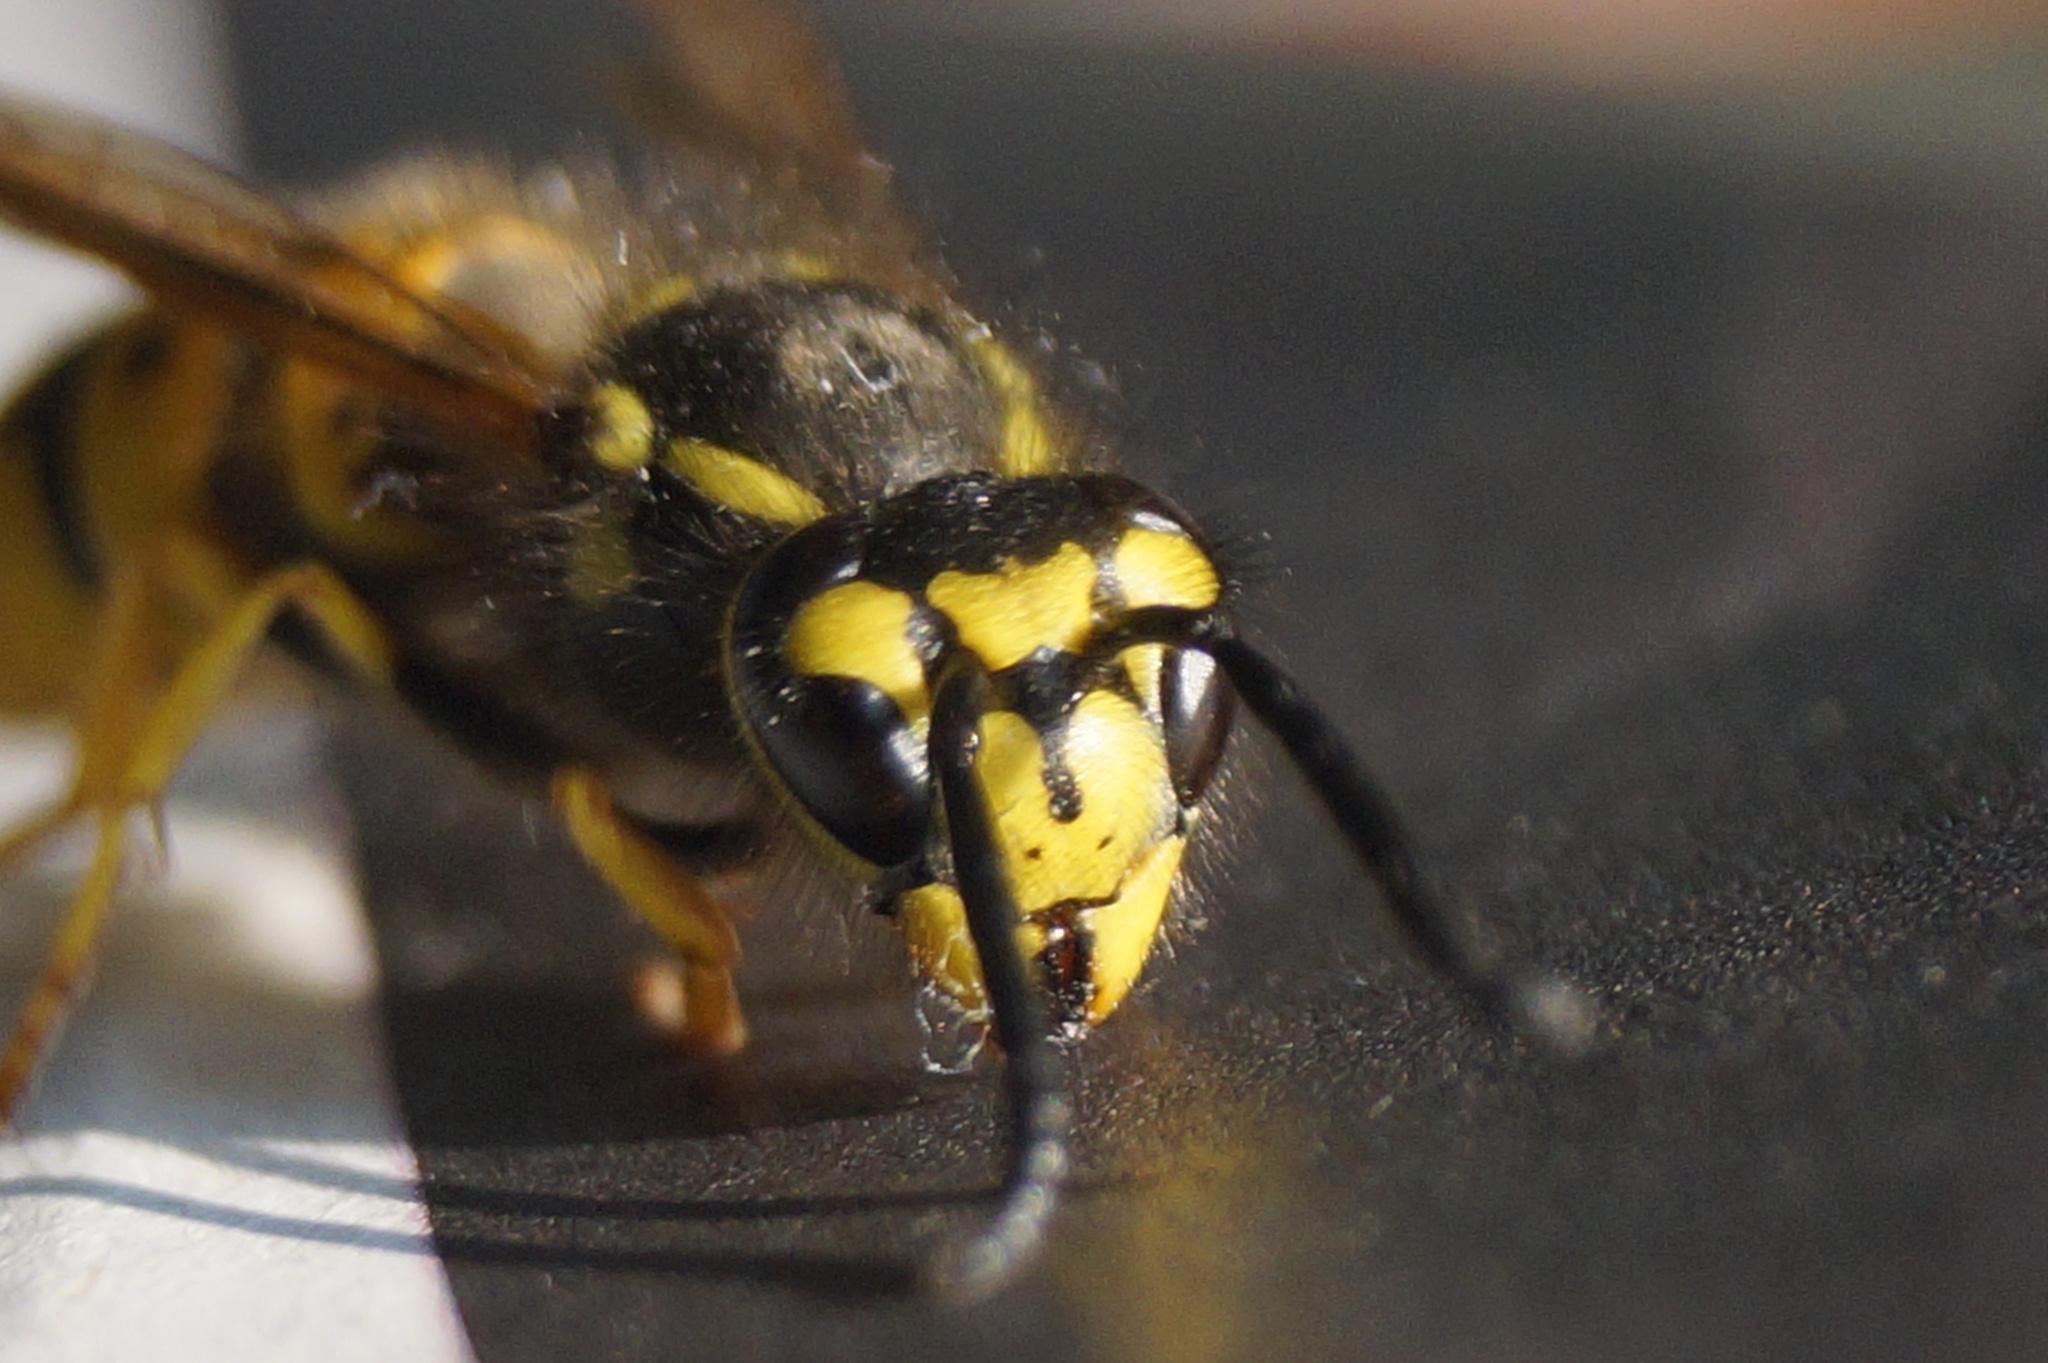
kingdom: Animalia
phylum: Arthropoda
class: Insecta
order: Hymenoptera
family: Vespidae
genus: Vespula
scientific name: Vespula germanica
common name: German wasp
